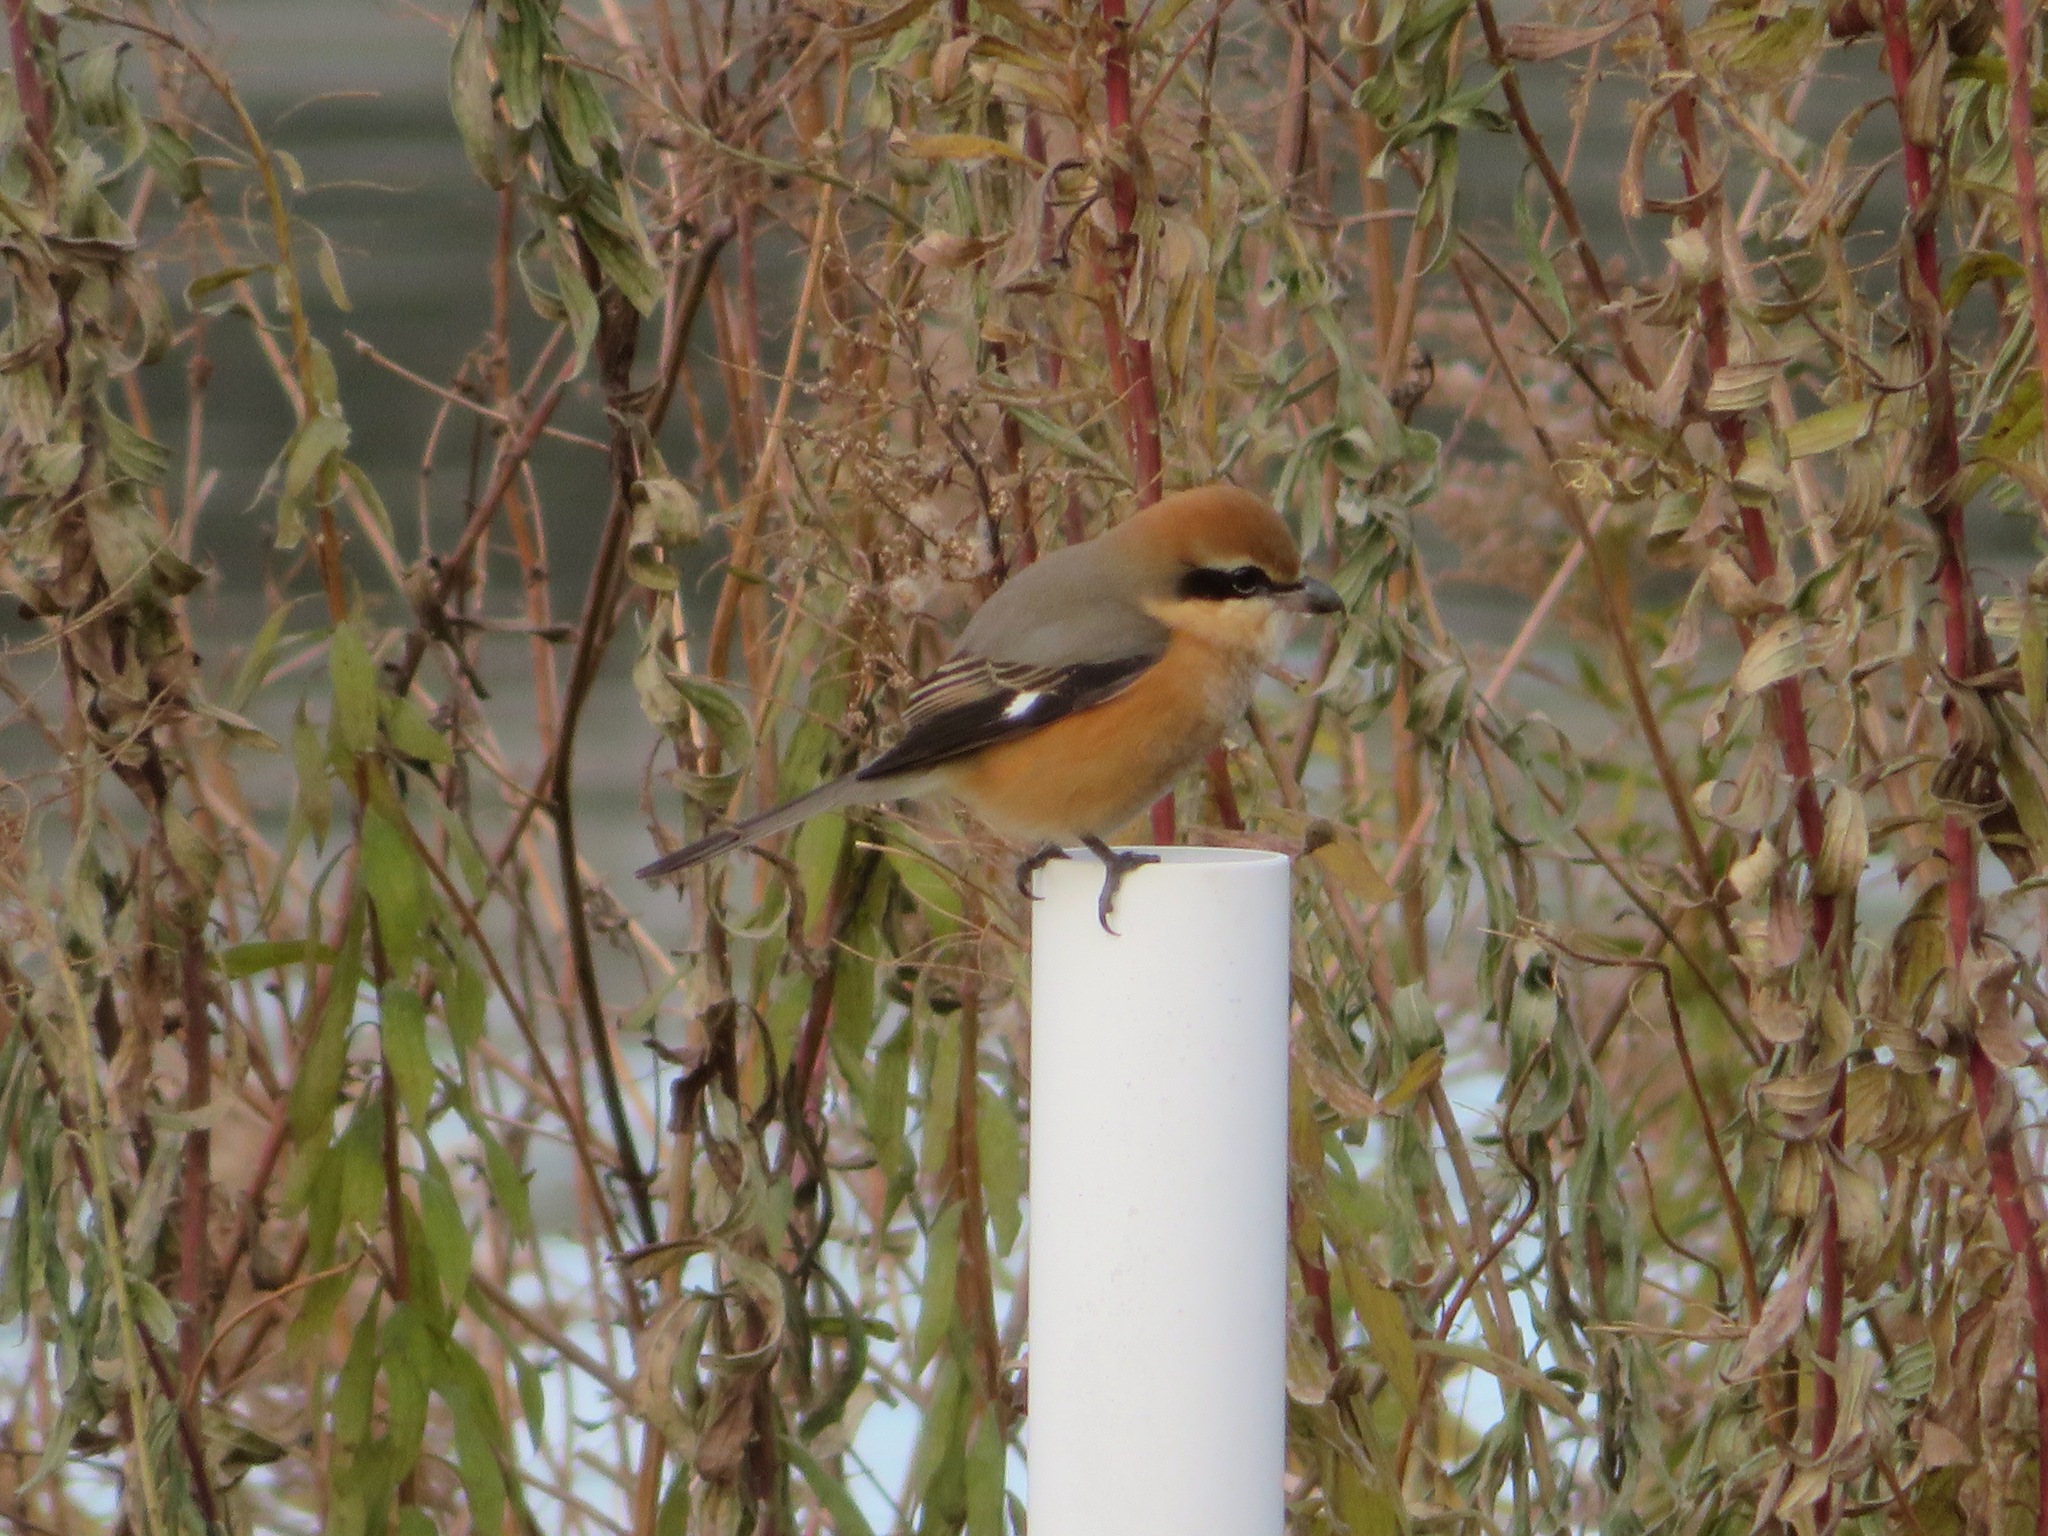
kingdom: Animalia
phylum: Chordata
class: Aves
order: Passeriformes
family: Laniidae
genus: Lanius
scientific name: Lanius bucephalus
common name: Bull-headed shrike
